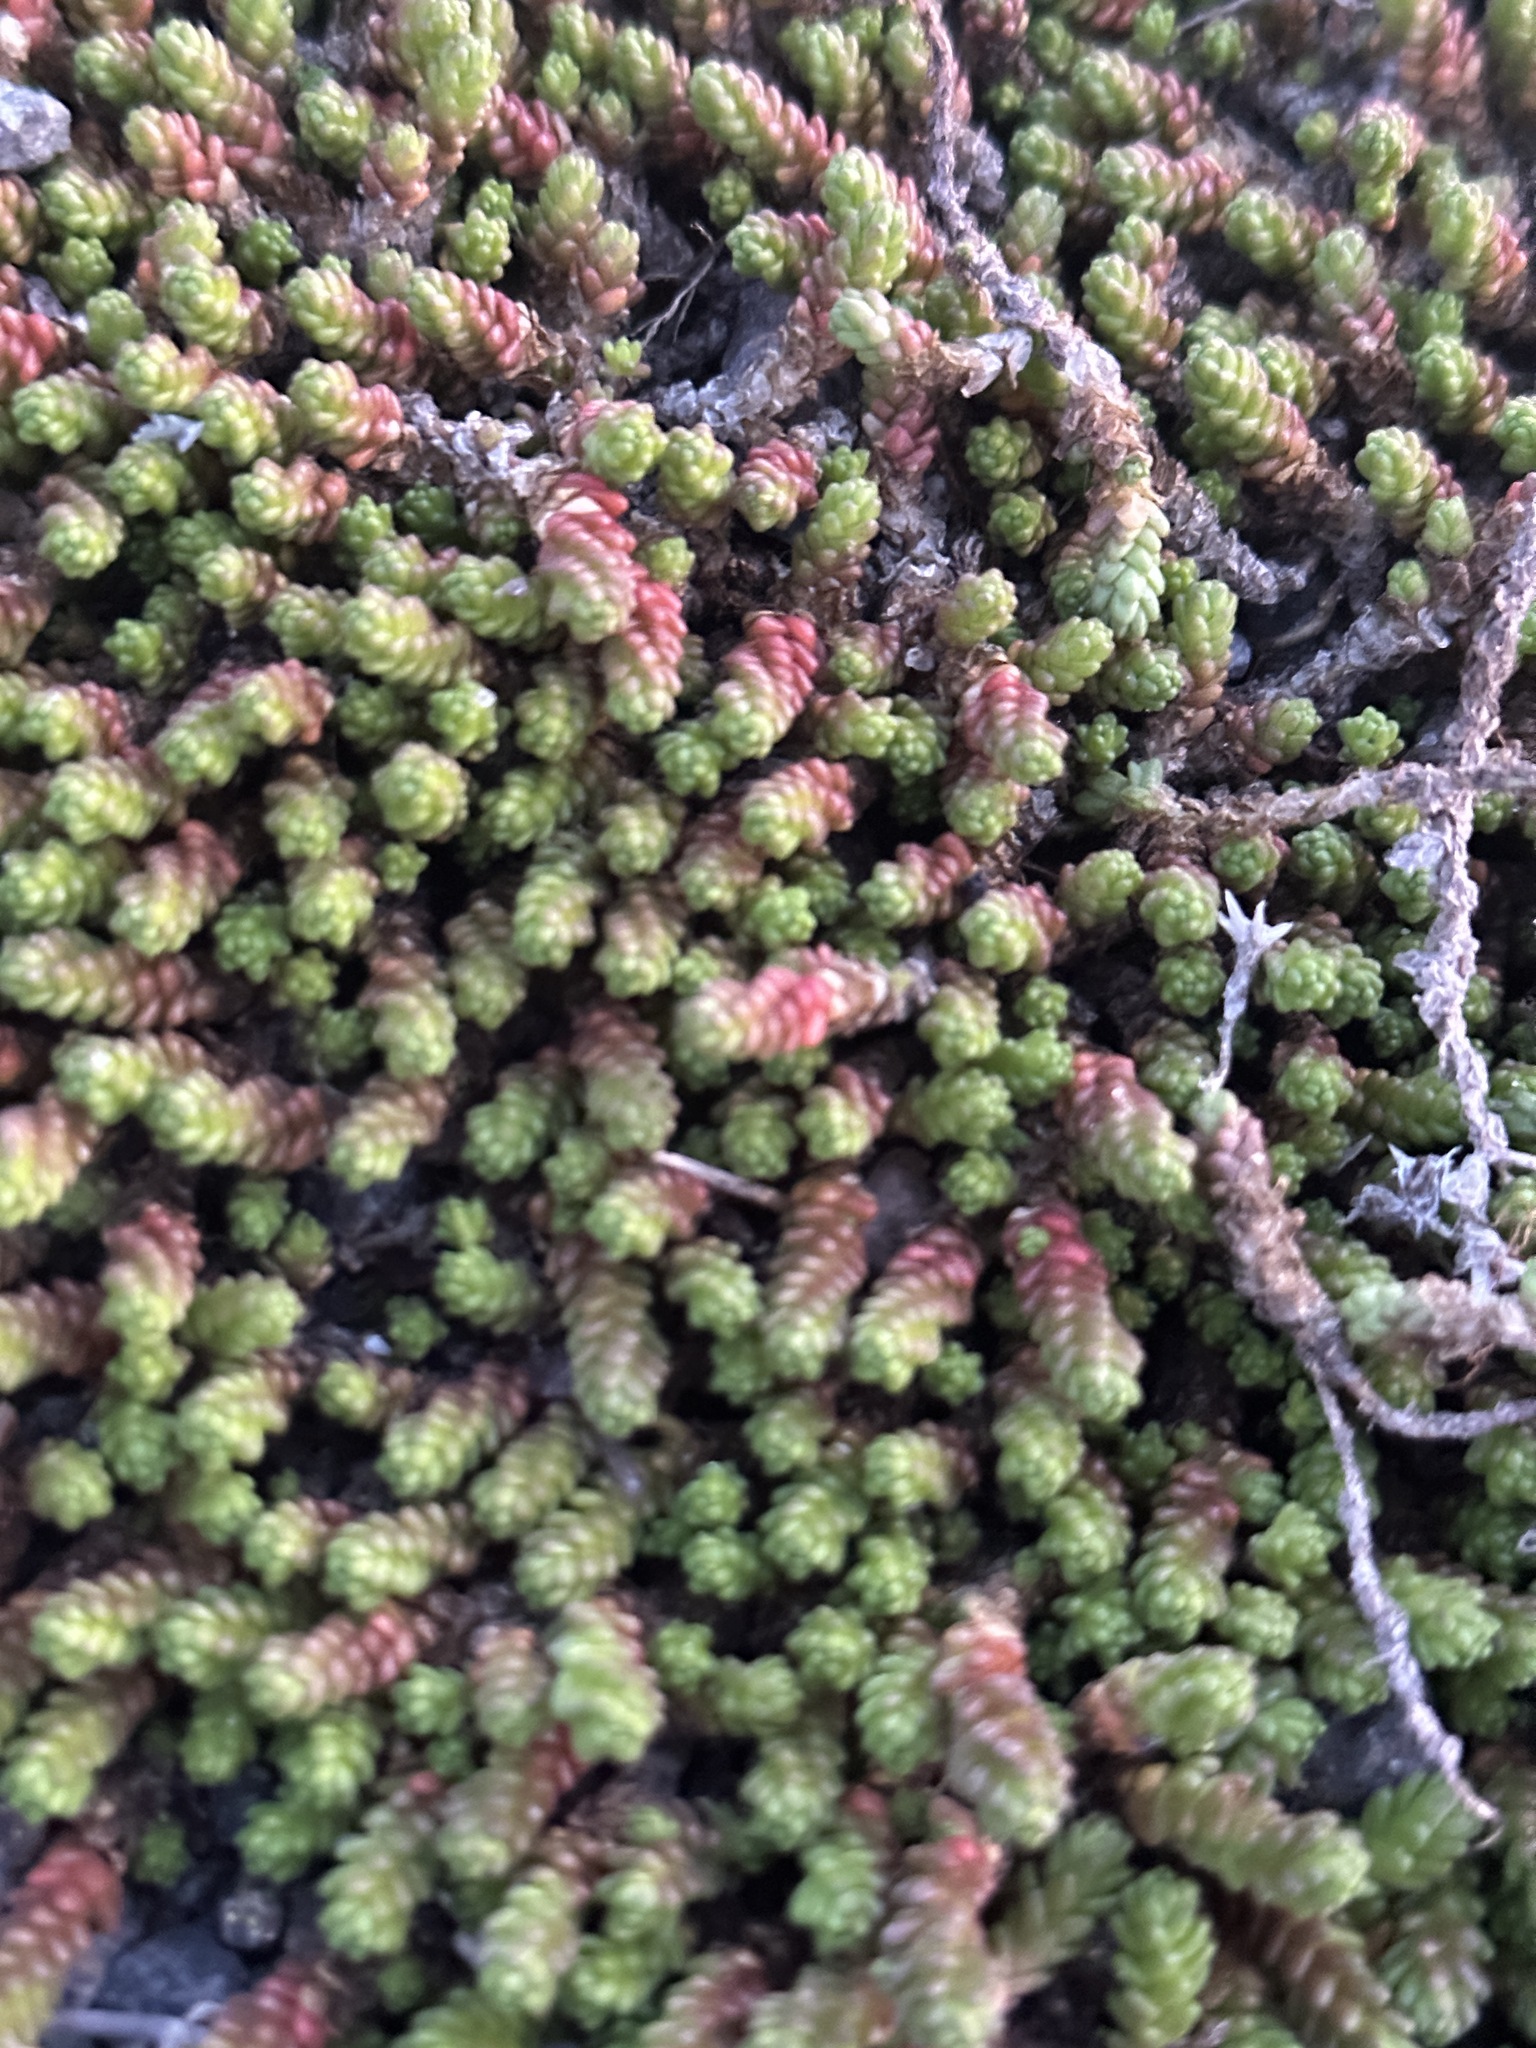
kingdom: Plantae
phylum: Tracheophyta
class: Magnoliopsida
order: Saxifragales
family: Crassulaceae
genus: Sedum
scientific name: Sedum acre
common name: Biting stonecrop
